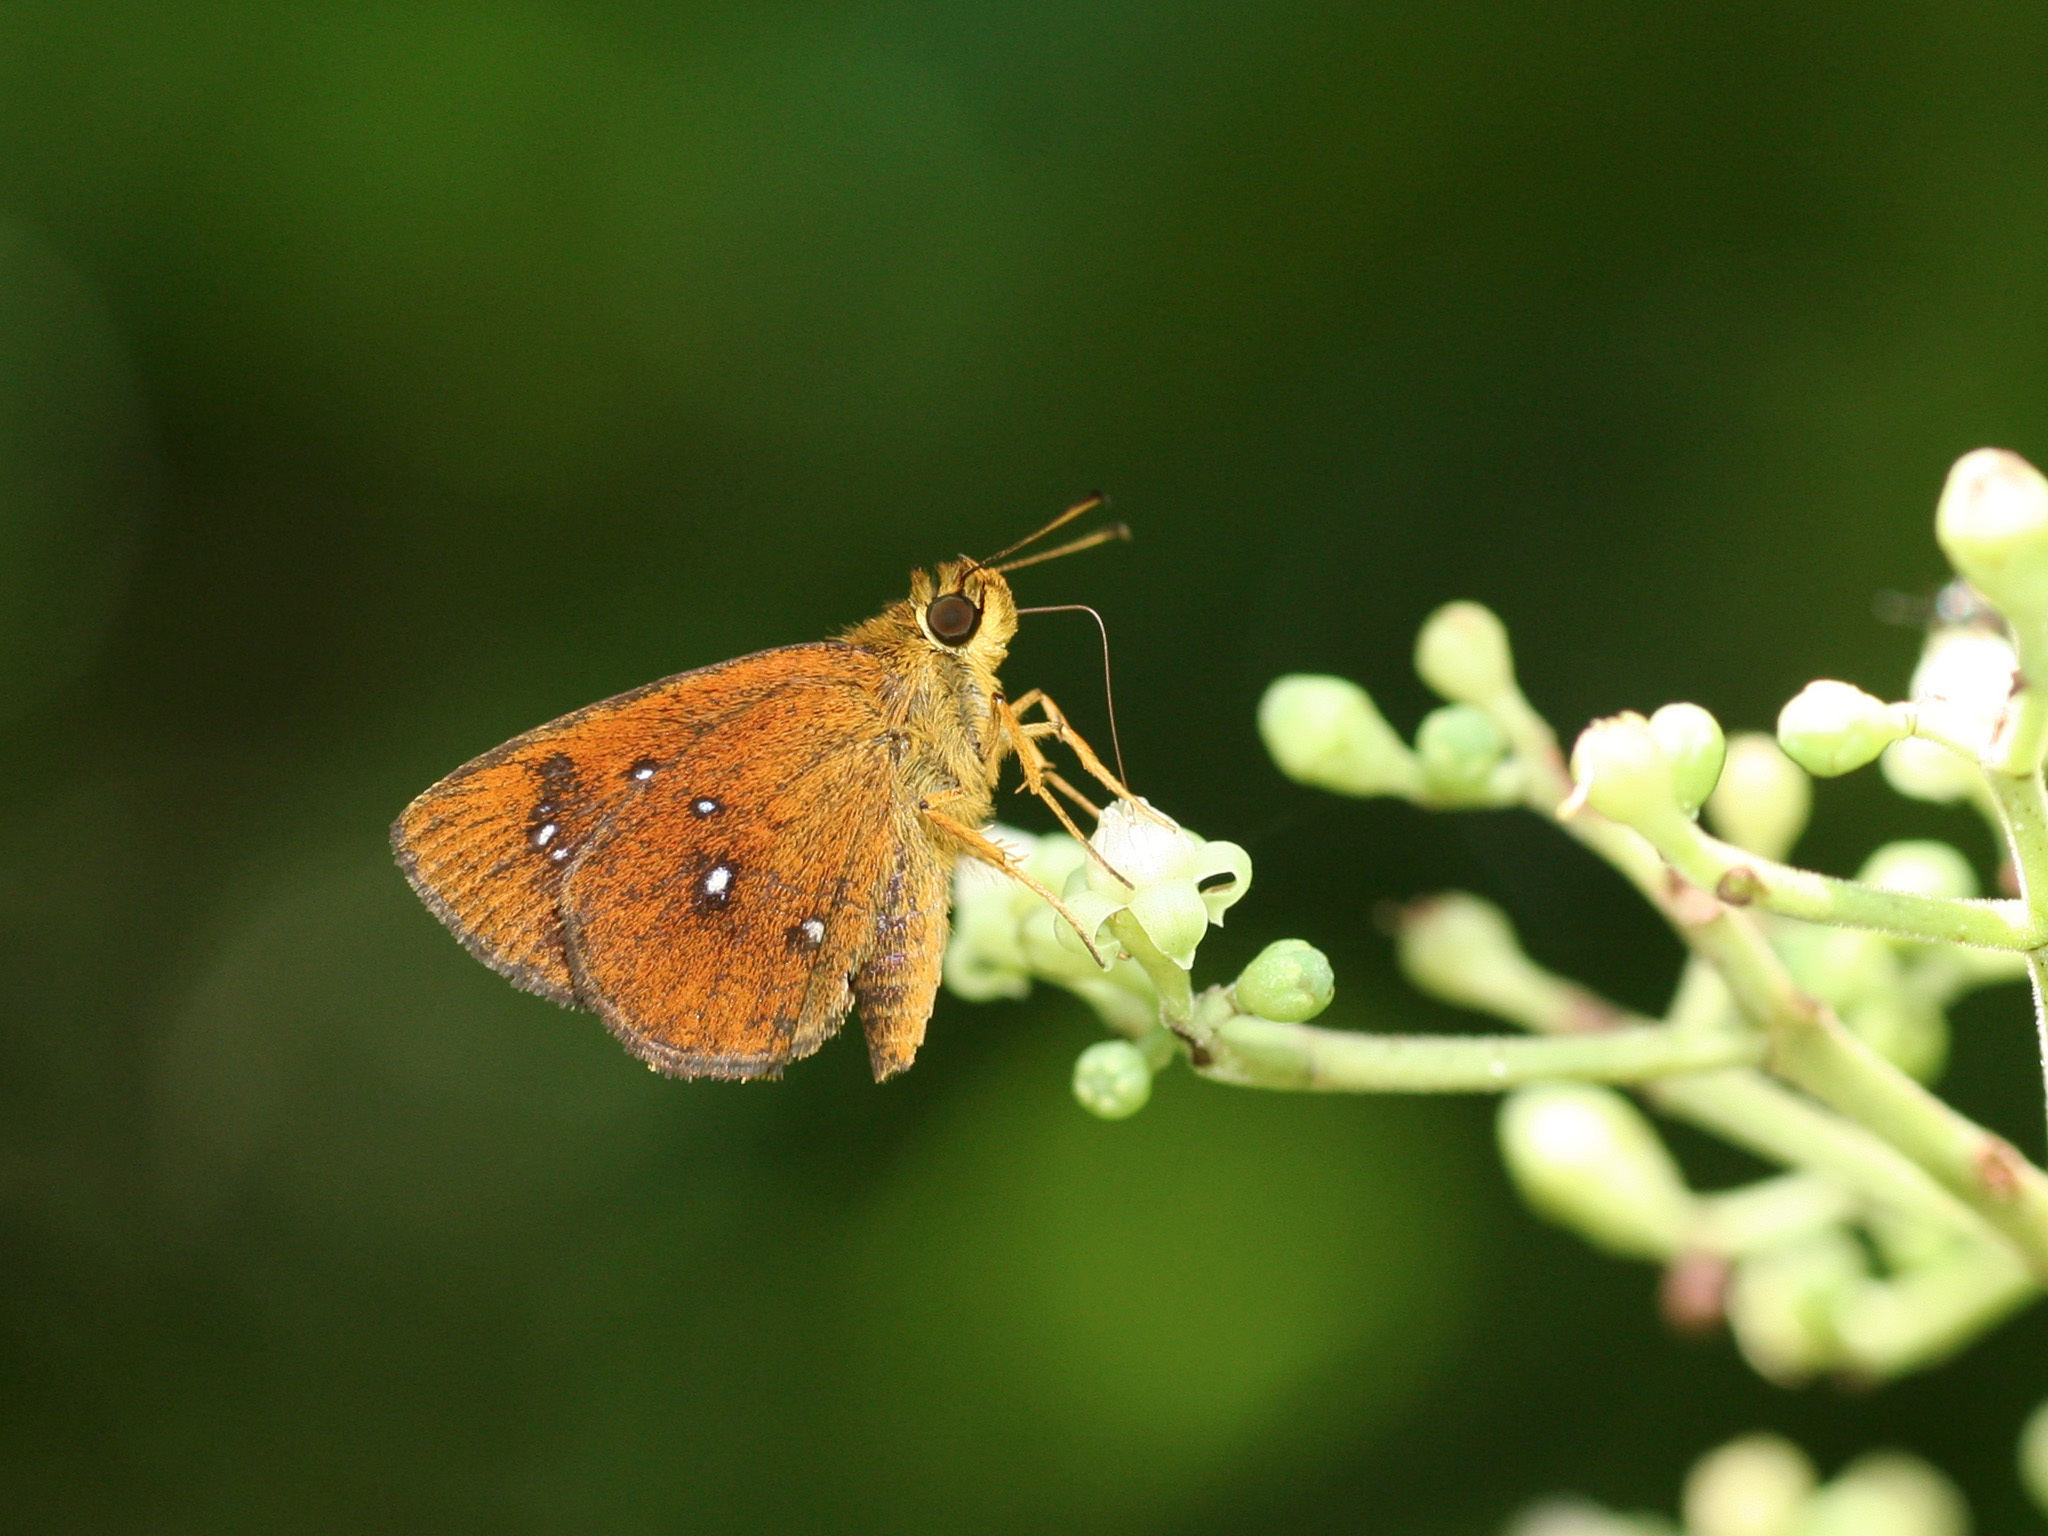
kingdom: Animalia
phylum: Arthropoda
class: Insecta
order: Lepidoptera
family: Hesperiidae
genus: Iambrix
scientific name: Iambrix salsala
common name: Chestnut bob
